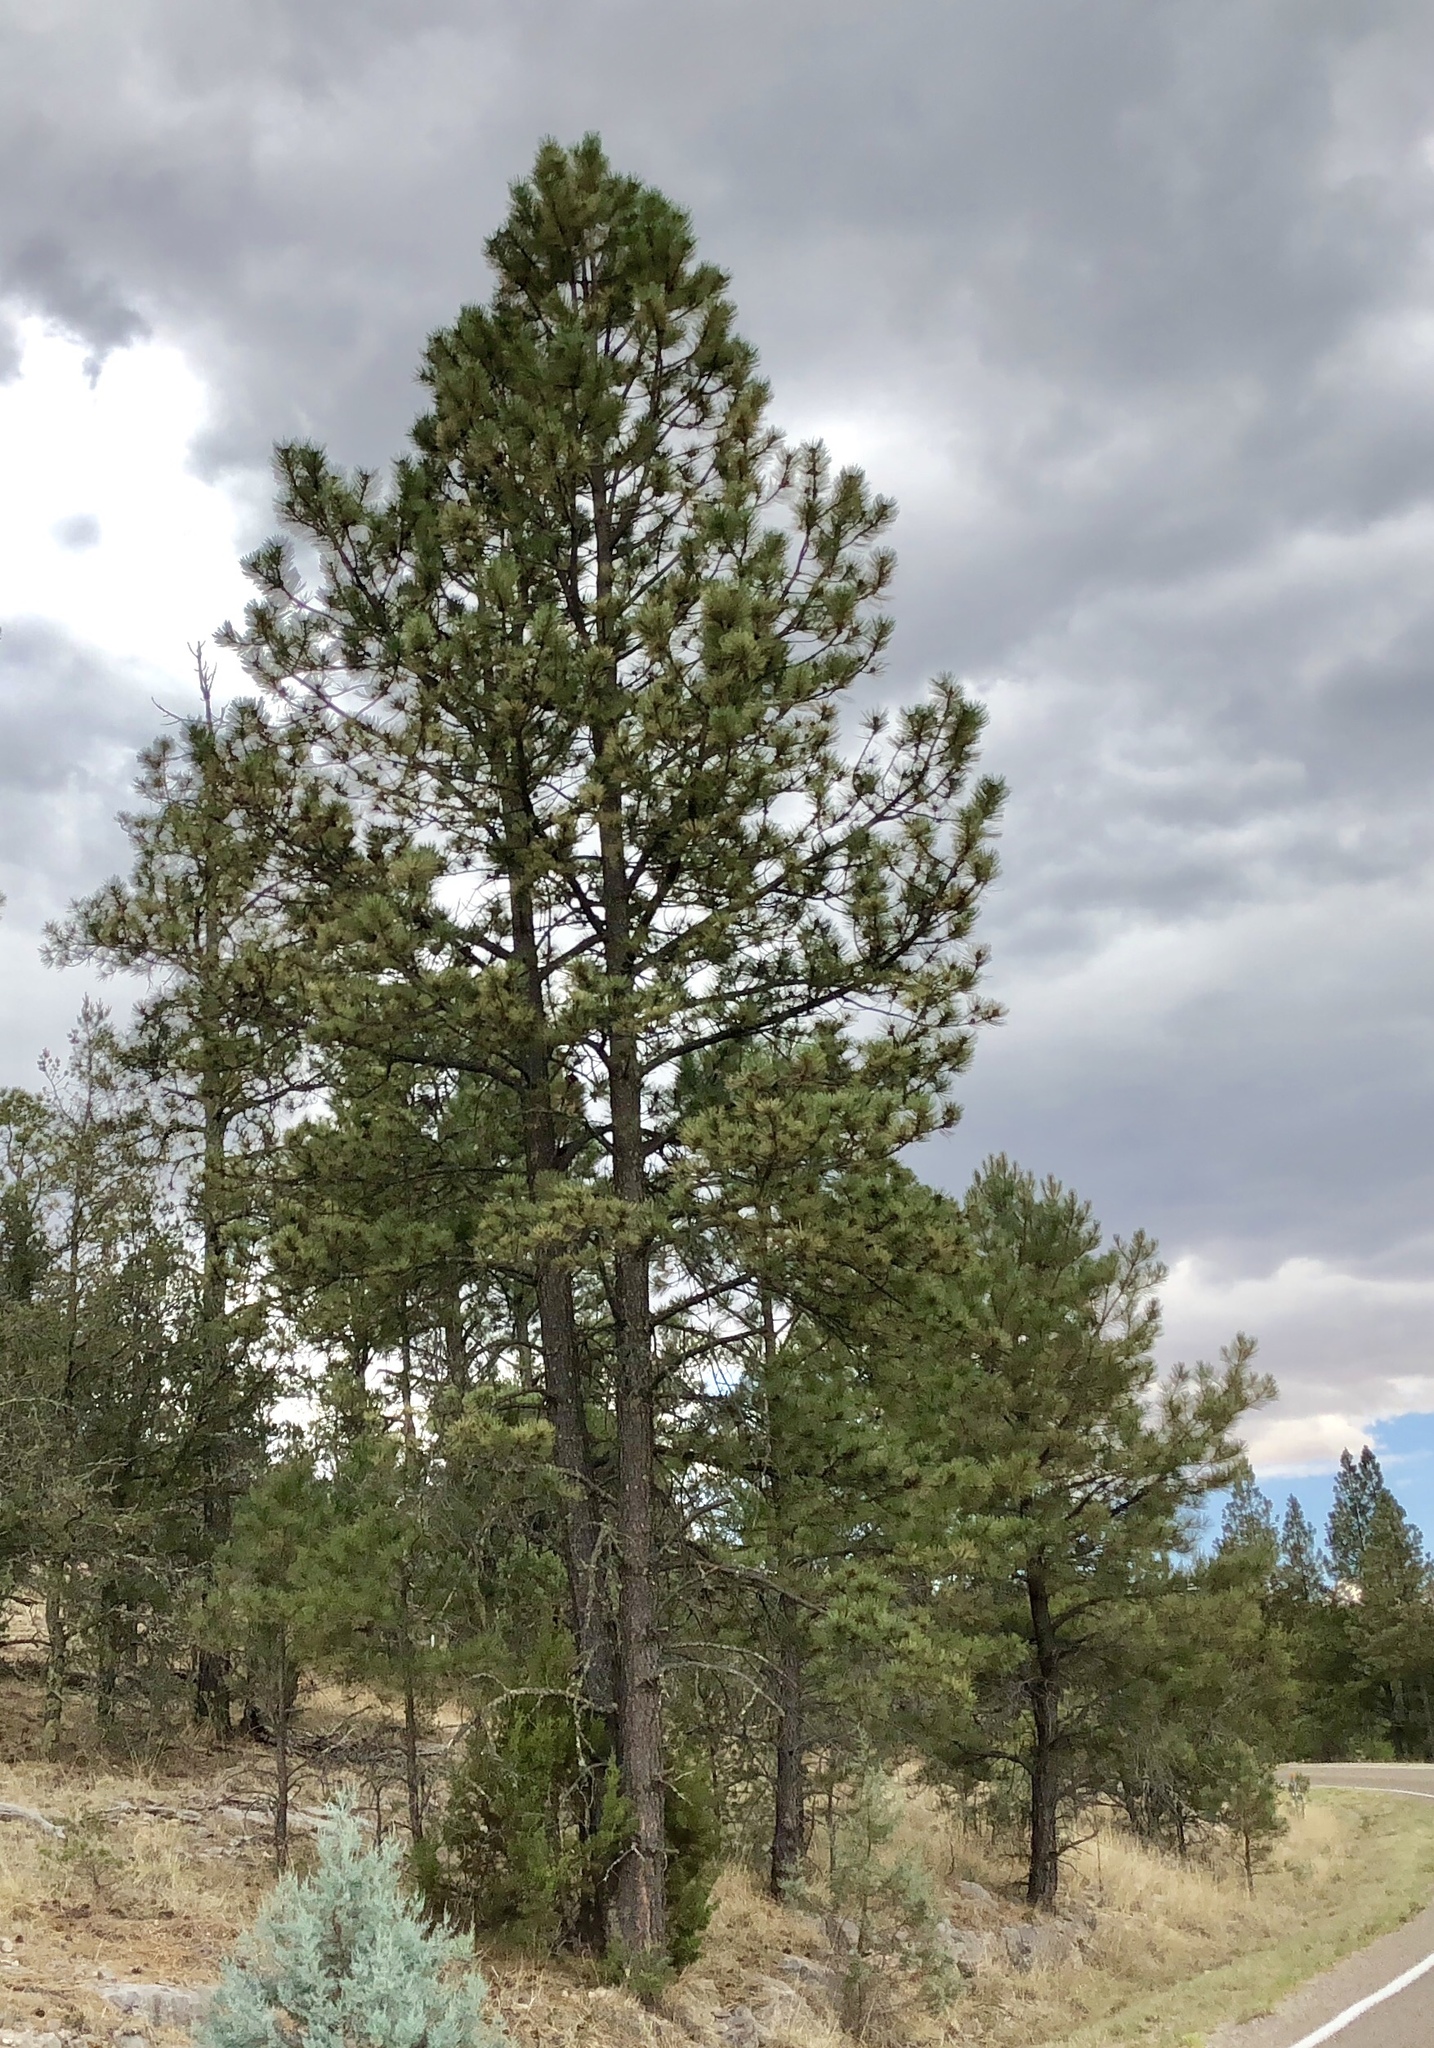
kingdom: Plantae
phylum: Tracheophyta
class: Pinopsida
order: Pinales
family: Pinaceae
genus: Pinus
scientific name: Pinus ponderosa
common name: Western yellow-pine
